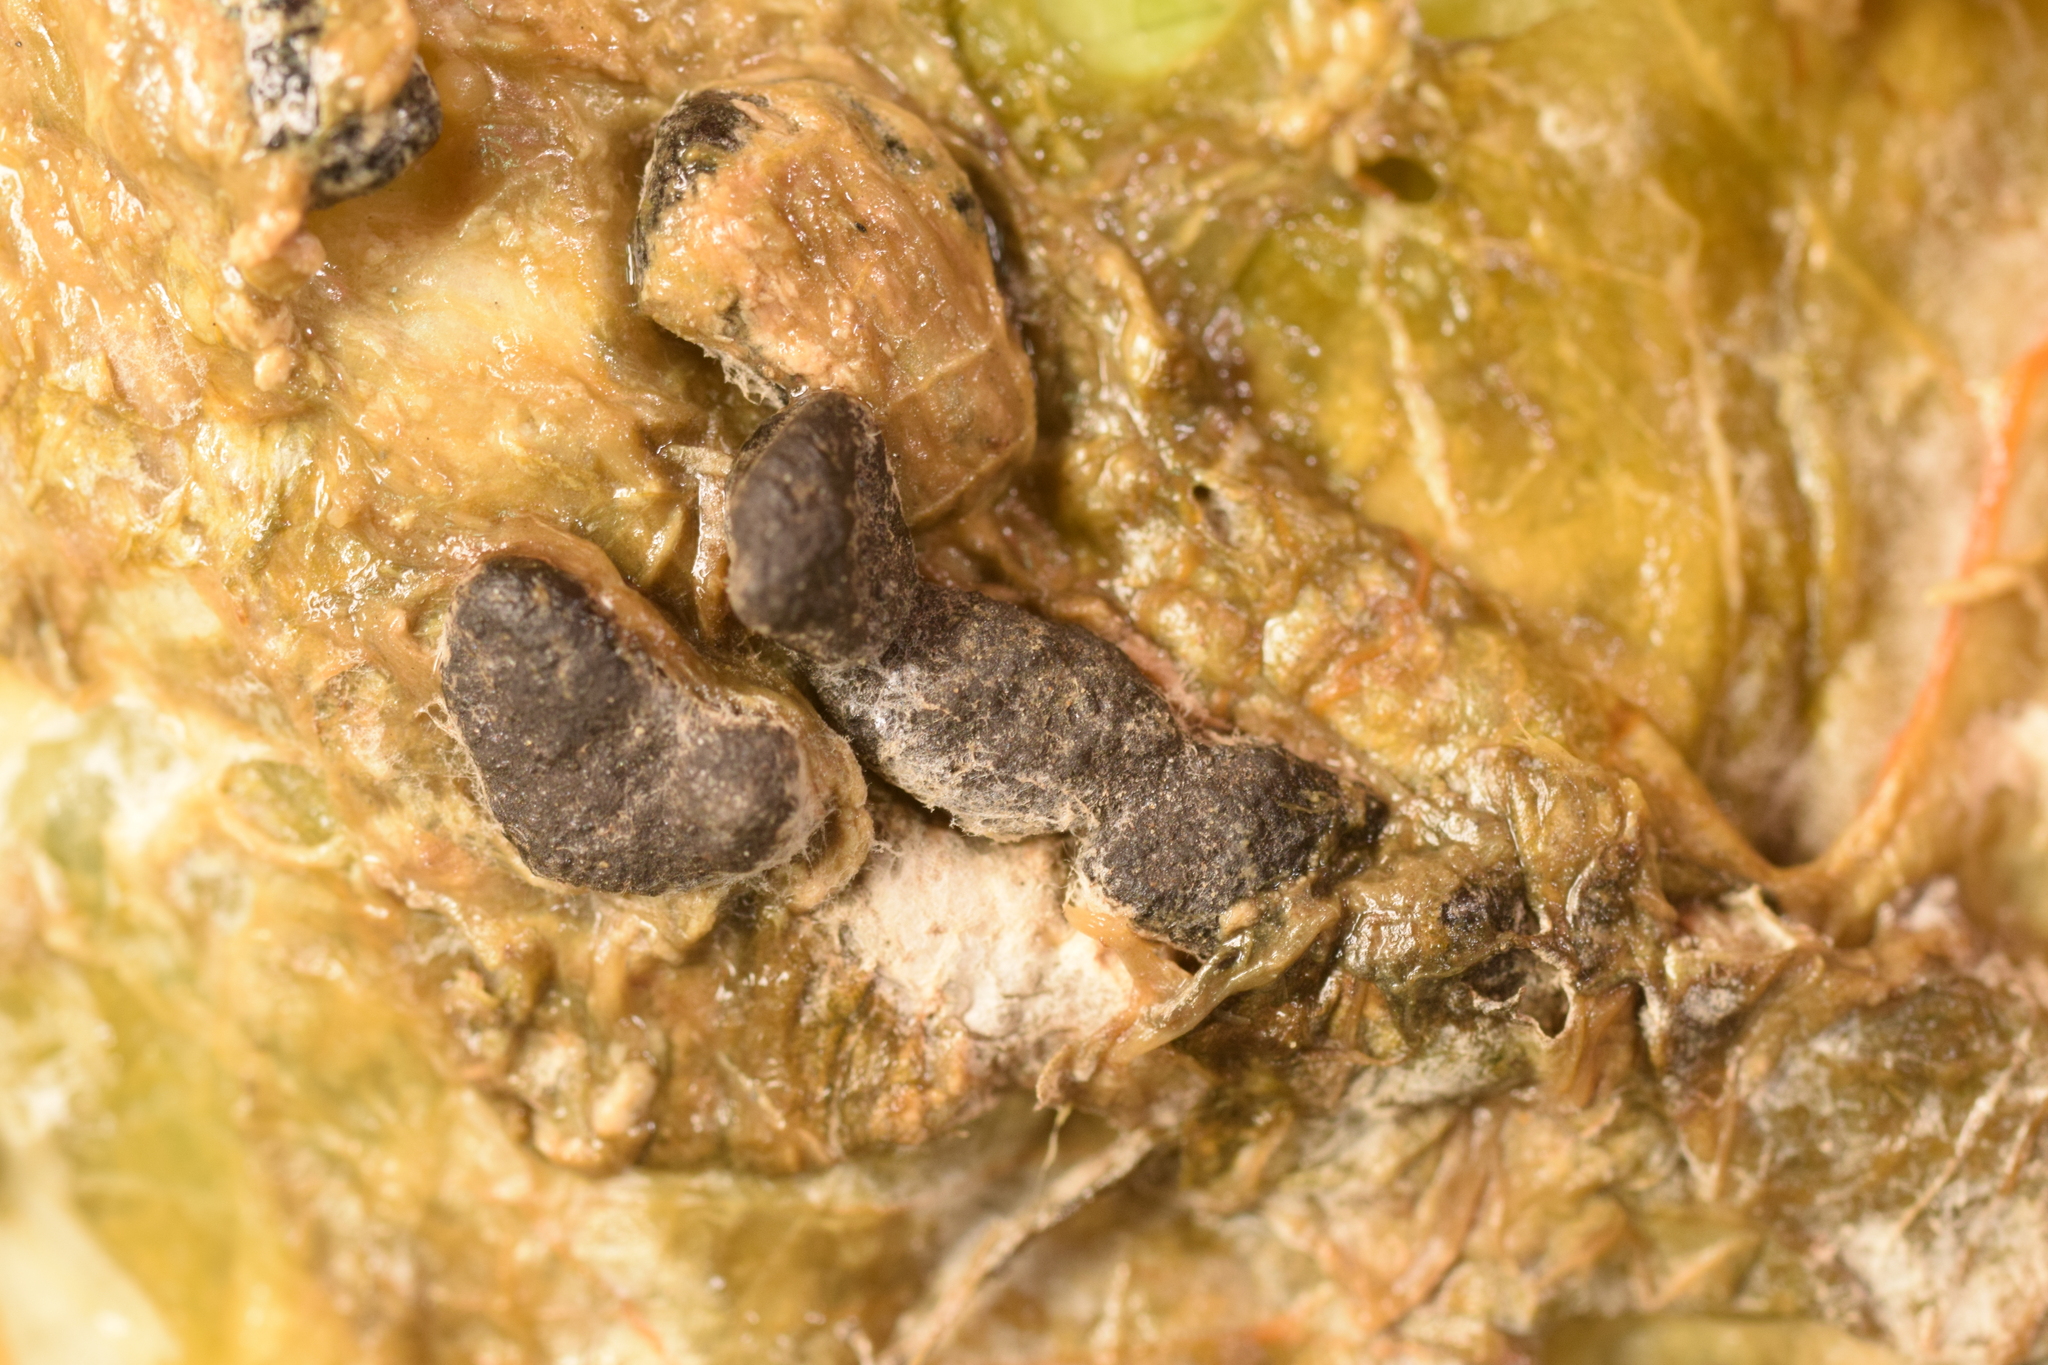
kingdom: Fungi
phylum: Ascomycota
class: Leotiomycetes
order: Helotiales
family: Sclerotiniaceae
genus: Sclerotinia
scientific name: Sclerotinia sclerotiorum
